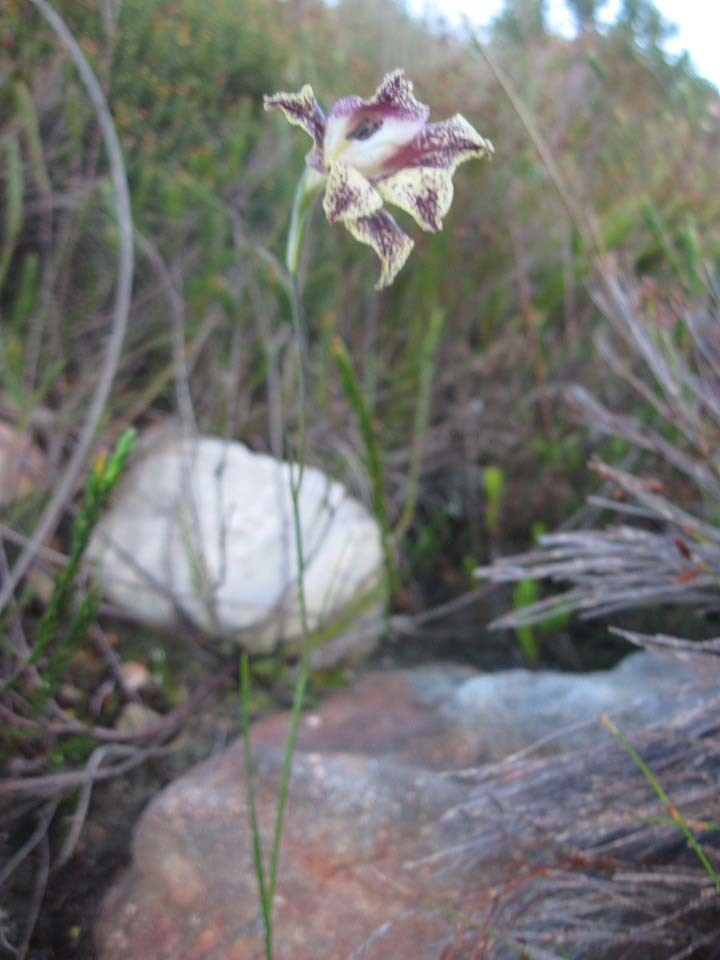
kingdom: Plantae
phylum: Tracheophyta
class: Liliopsida
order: Asparagales
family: Iridaceae
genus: Gladiolus
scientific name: Gladiolus maculatus
